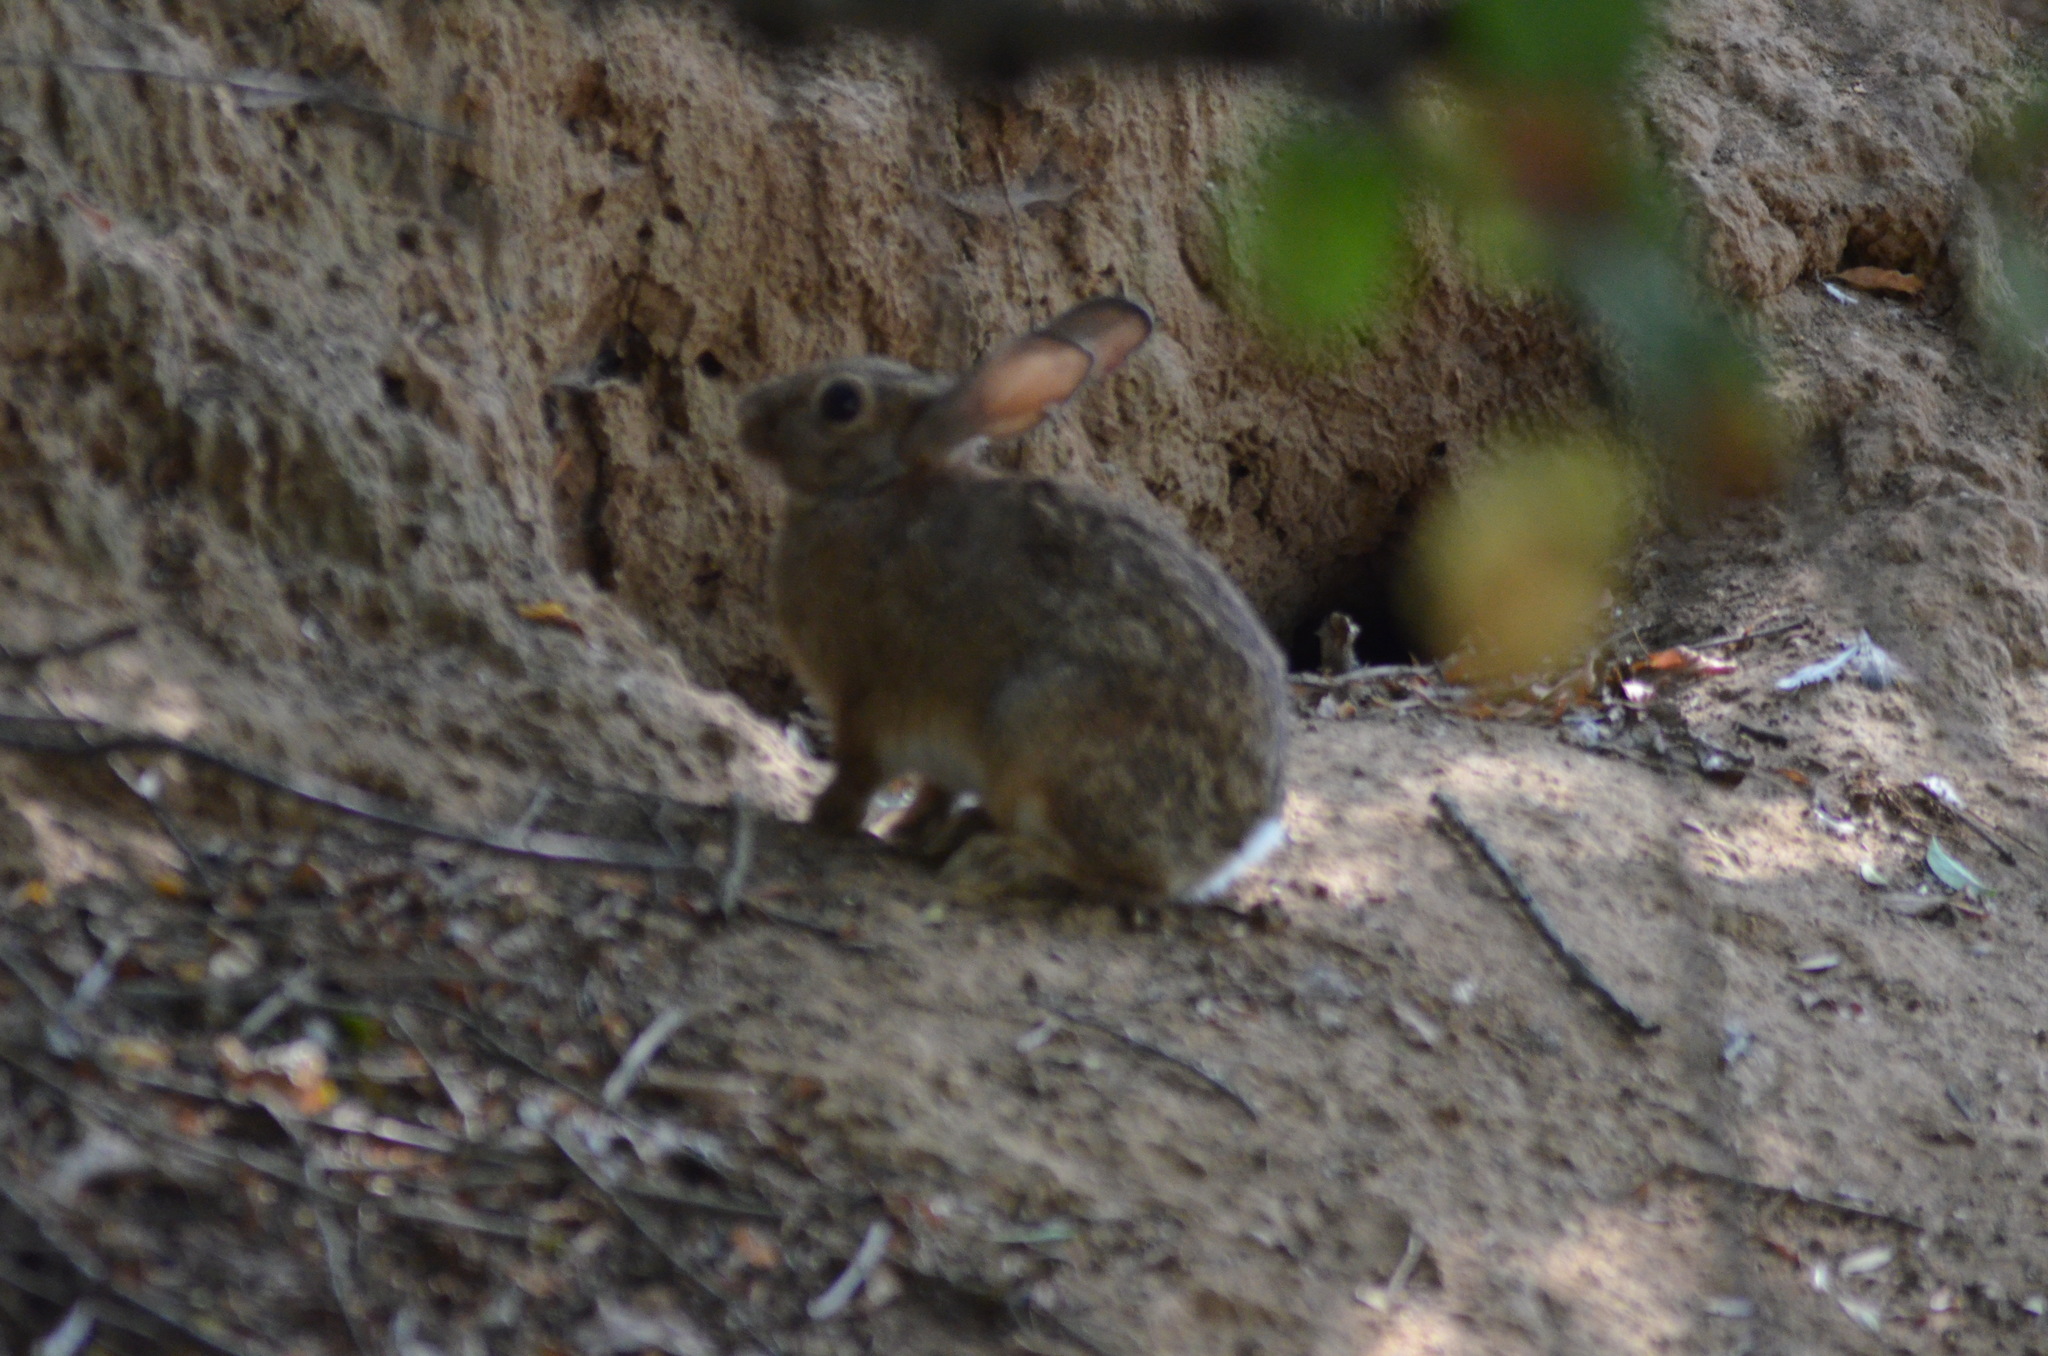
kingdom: Animalia
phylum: Chordata
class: Mammalia
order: Lagomorpha
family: Leporidae
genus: Oryctolagus
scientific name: Oryctolagus cuniculus
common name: European rabbit
